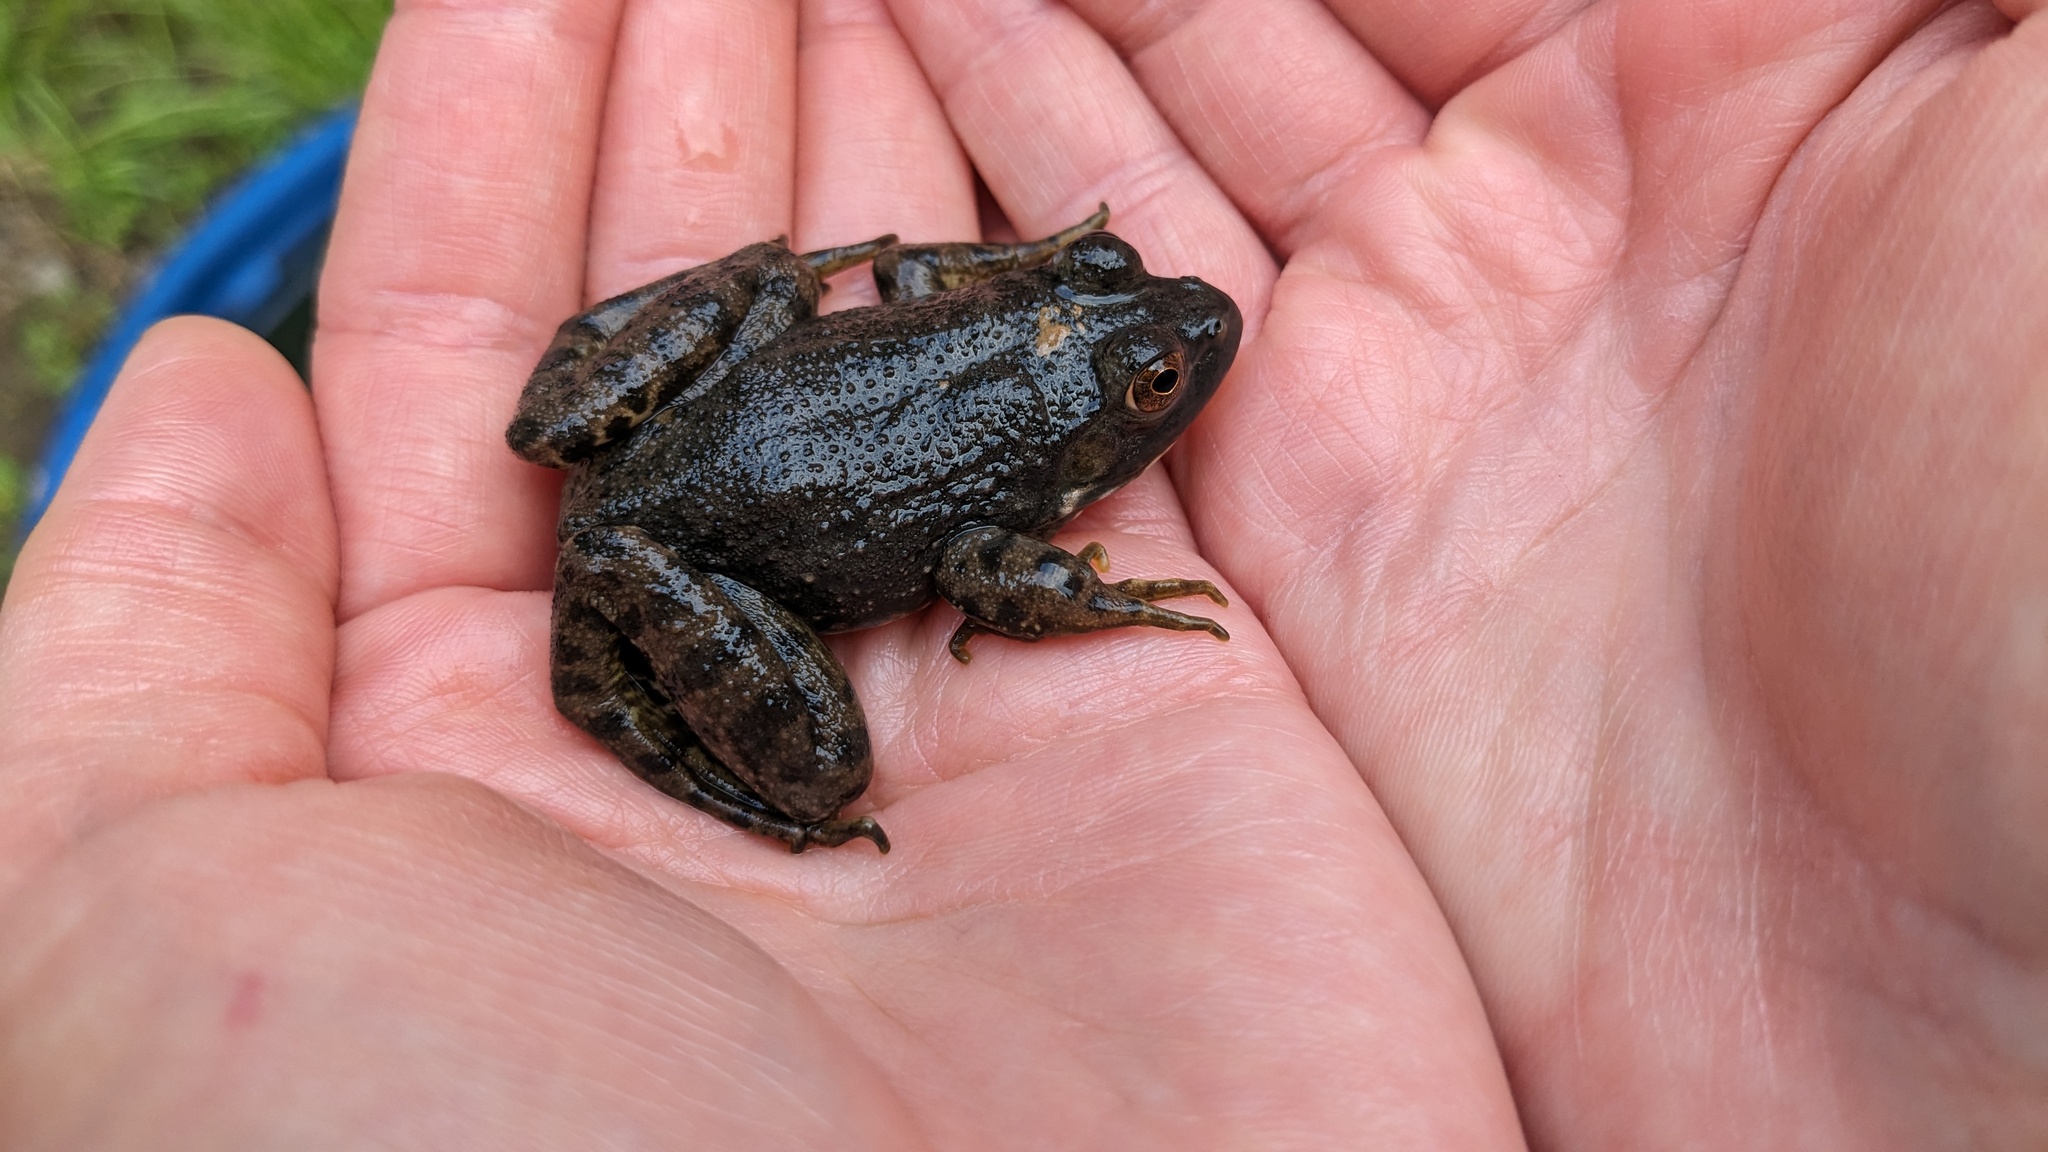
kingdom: Animalia
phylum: Chordata
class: Amphibia
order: Anura
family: Ranidae
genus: Lithobates
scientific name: Lithobates catesbeianus
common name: American bullfrog
